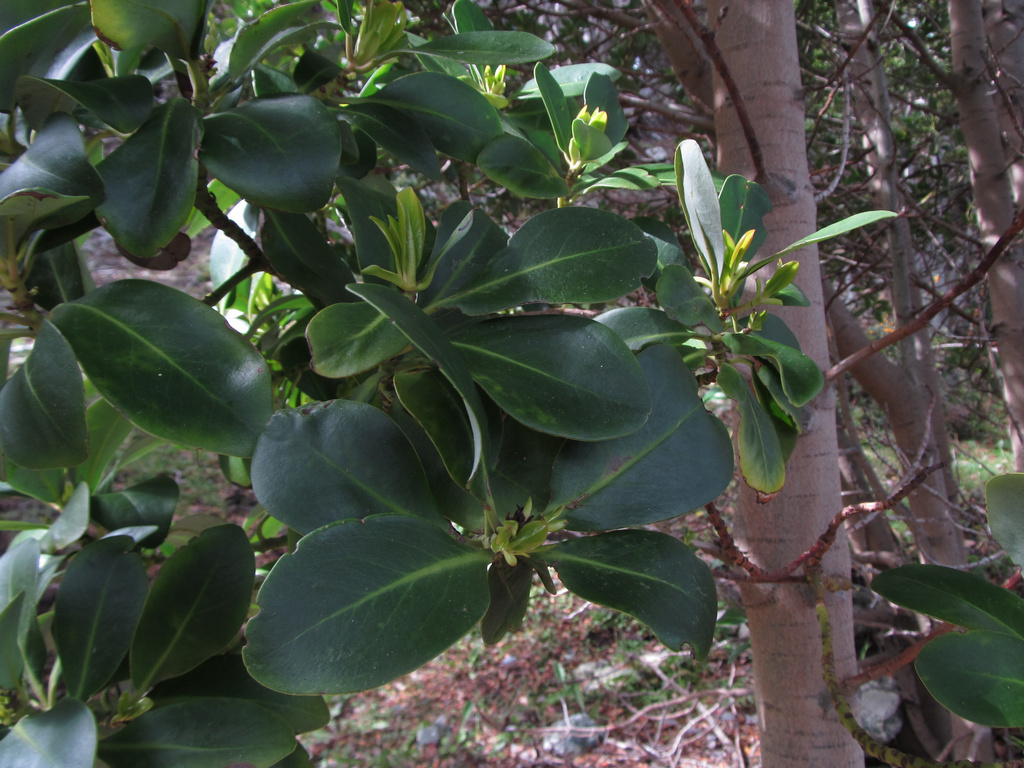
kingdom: Plantae
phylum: Tracheophyta
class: Magnoliopsida
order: Canellales
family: Winteraceae
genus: Drimys
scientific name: Drimys winteri
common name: Winter's-bark
